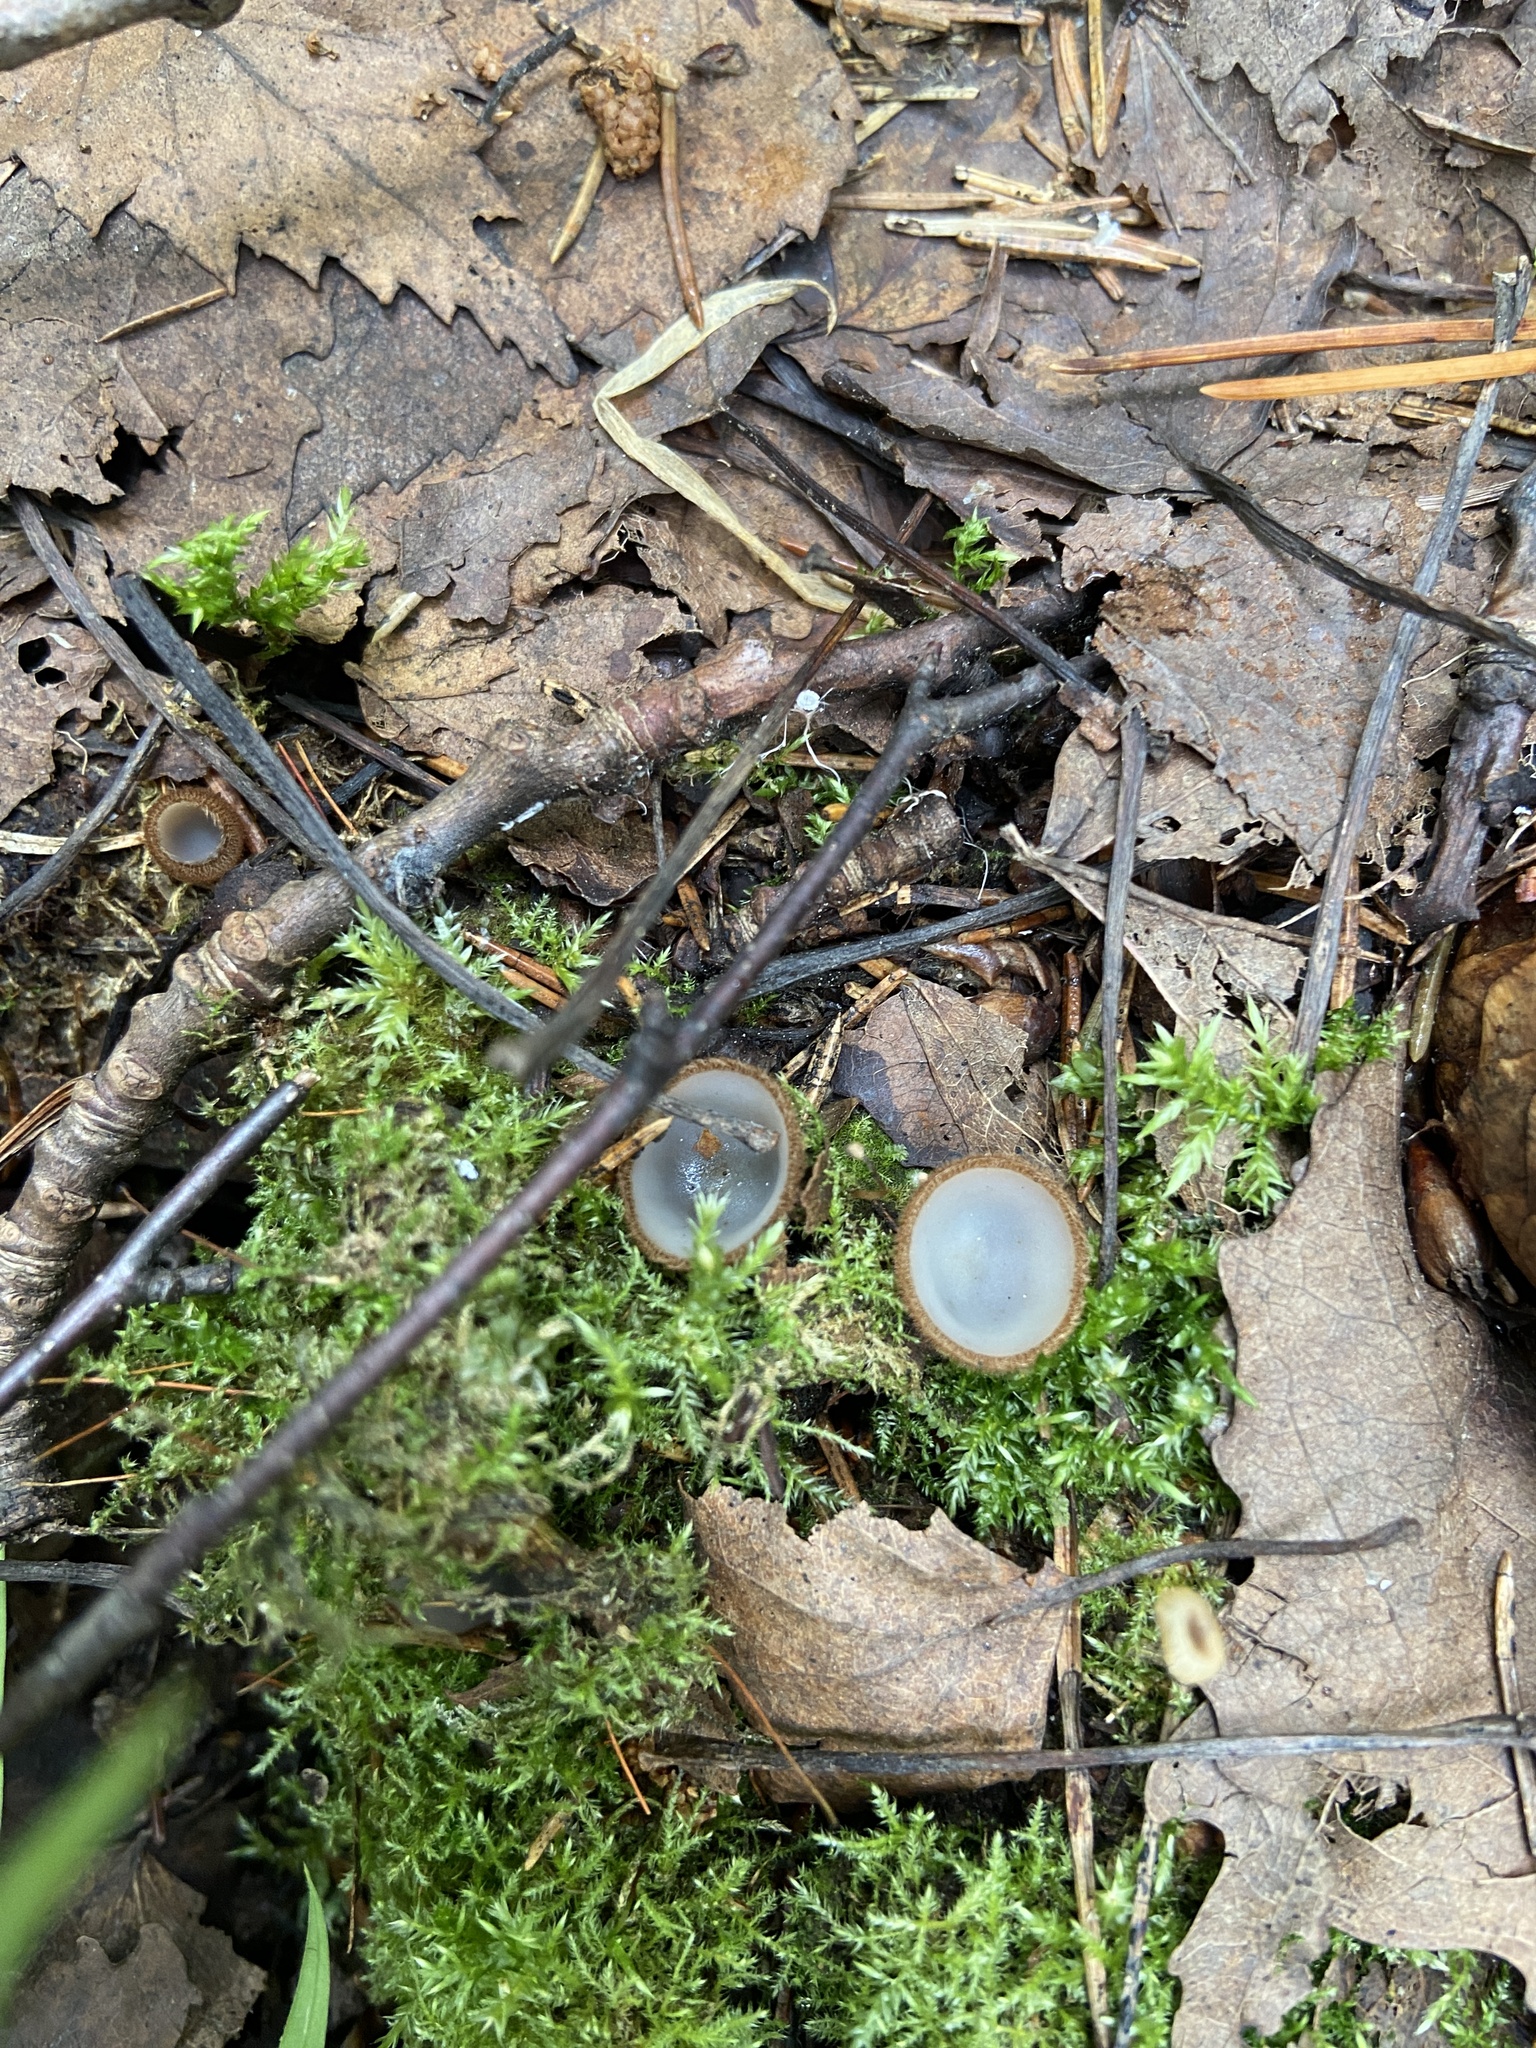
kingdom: Fungi
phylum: Ascomycota
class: Pezizomycetes
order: Pezizales
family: Pyronemataceae
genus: Humaria
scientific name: Humaria hemisphaerica
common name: Glazed cup
